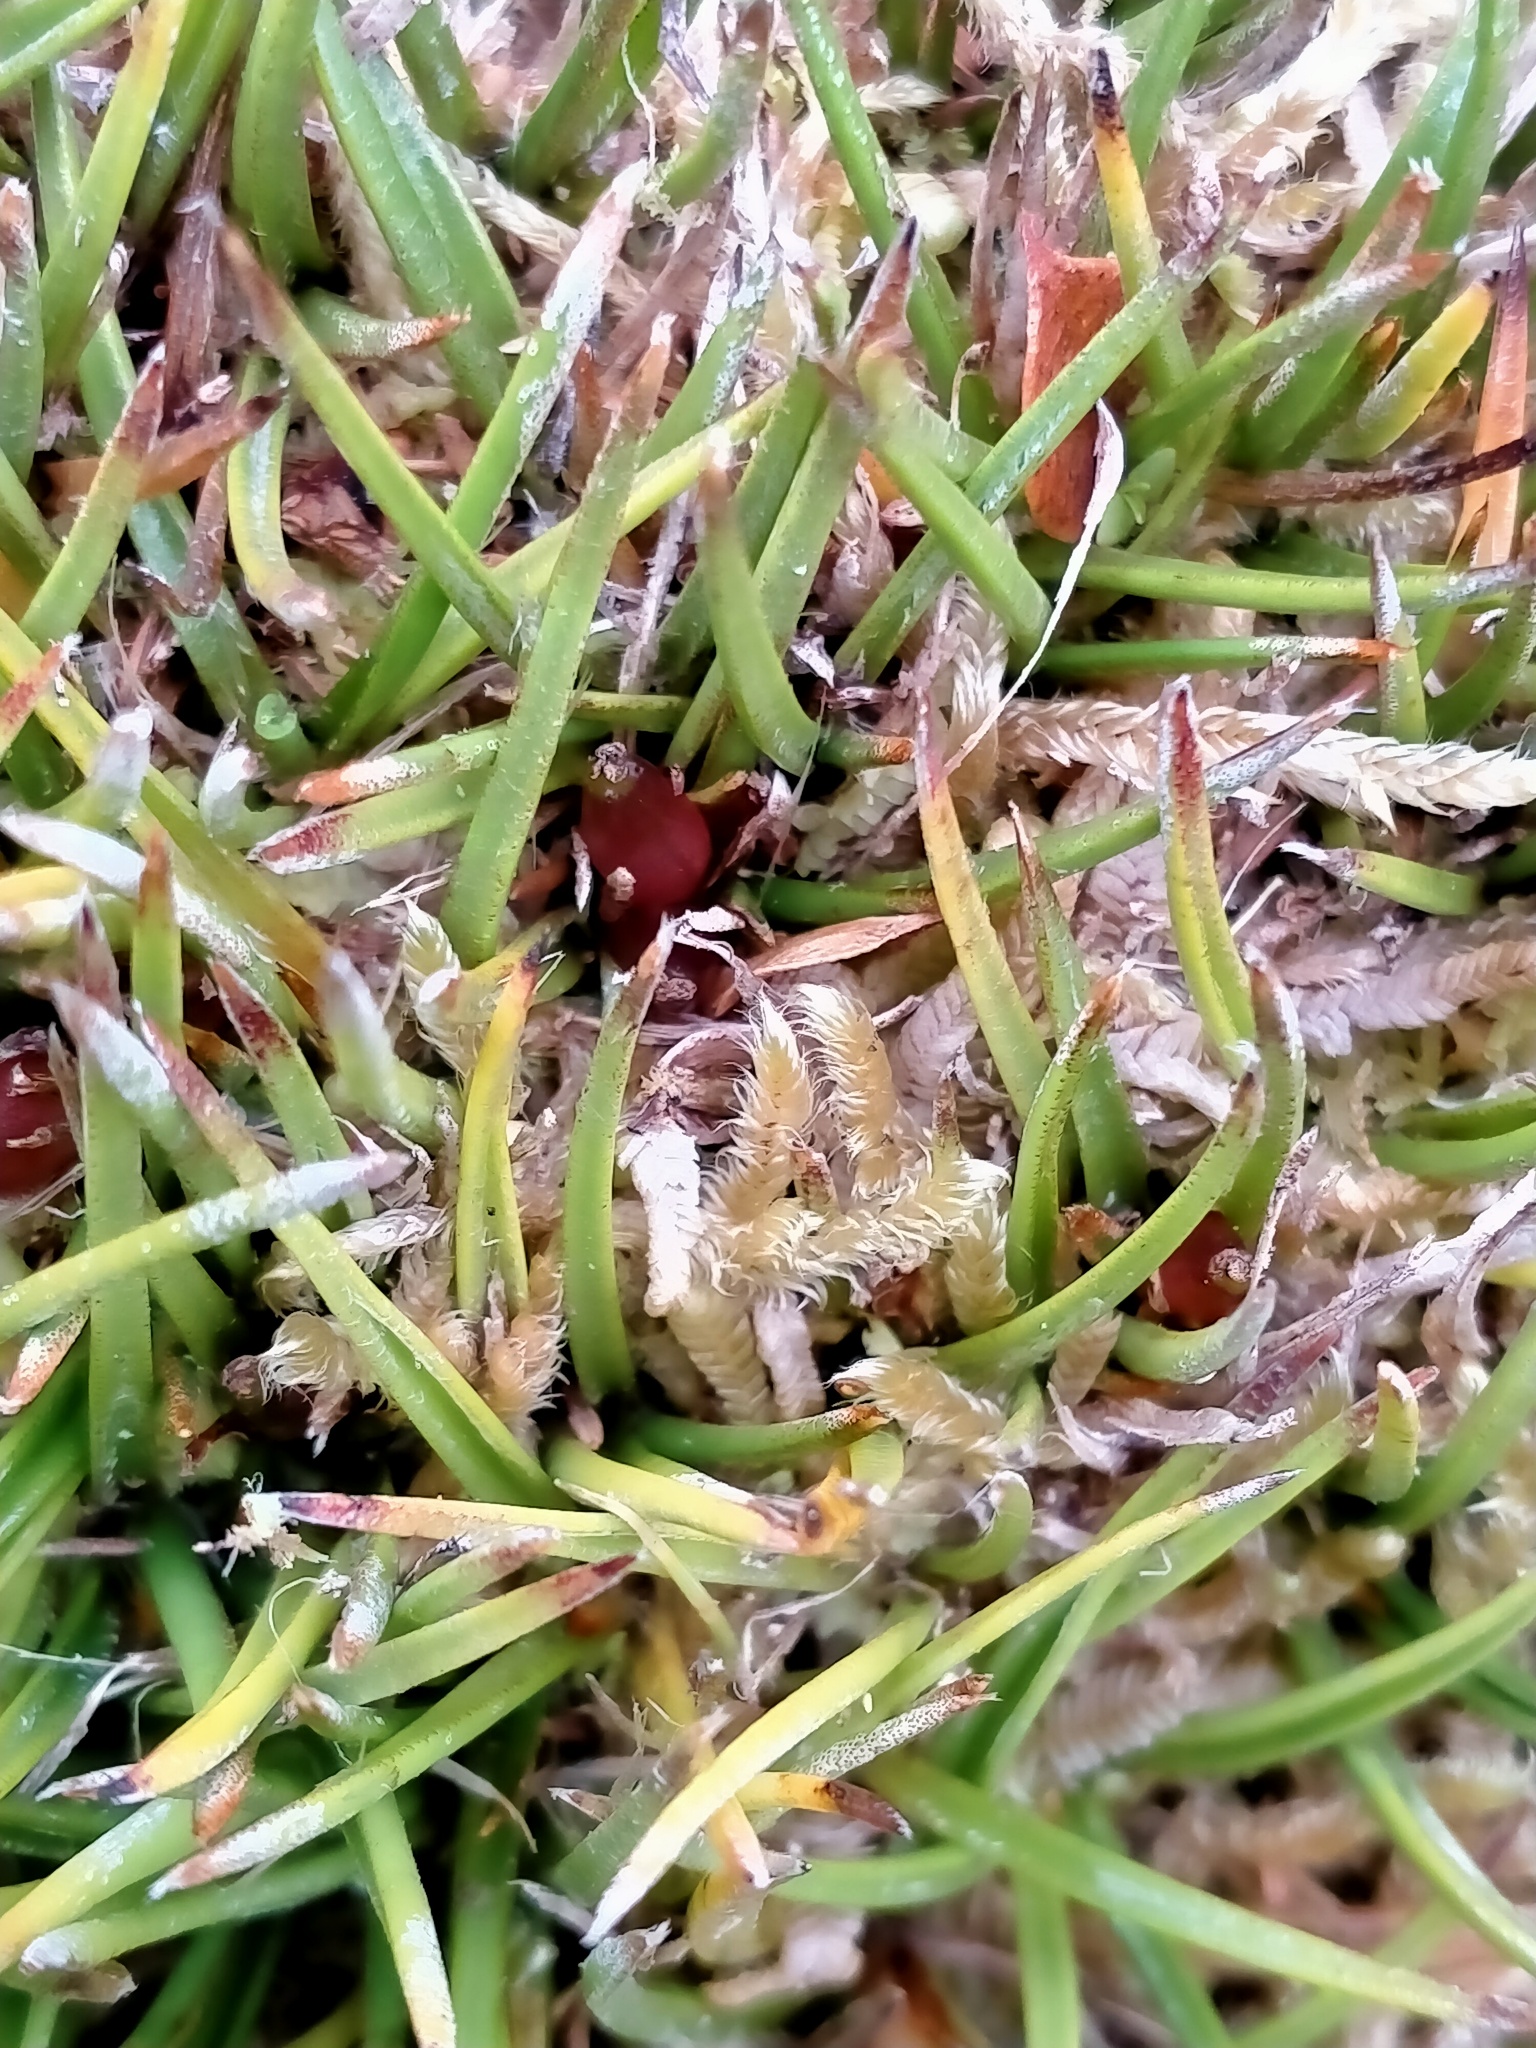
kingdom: Plantae
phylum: Tracheophyta
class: Liliopsida
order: Asparagales
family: Asteliaceae
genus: Astelia
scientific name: Astelia linearis
